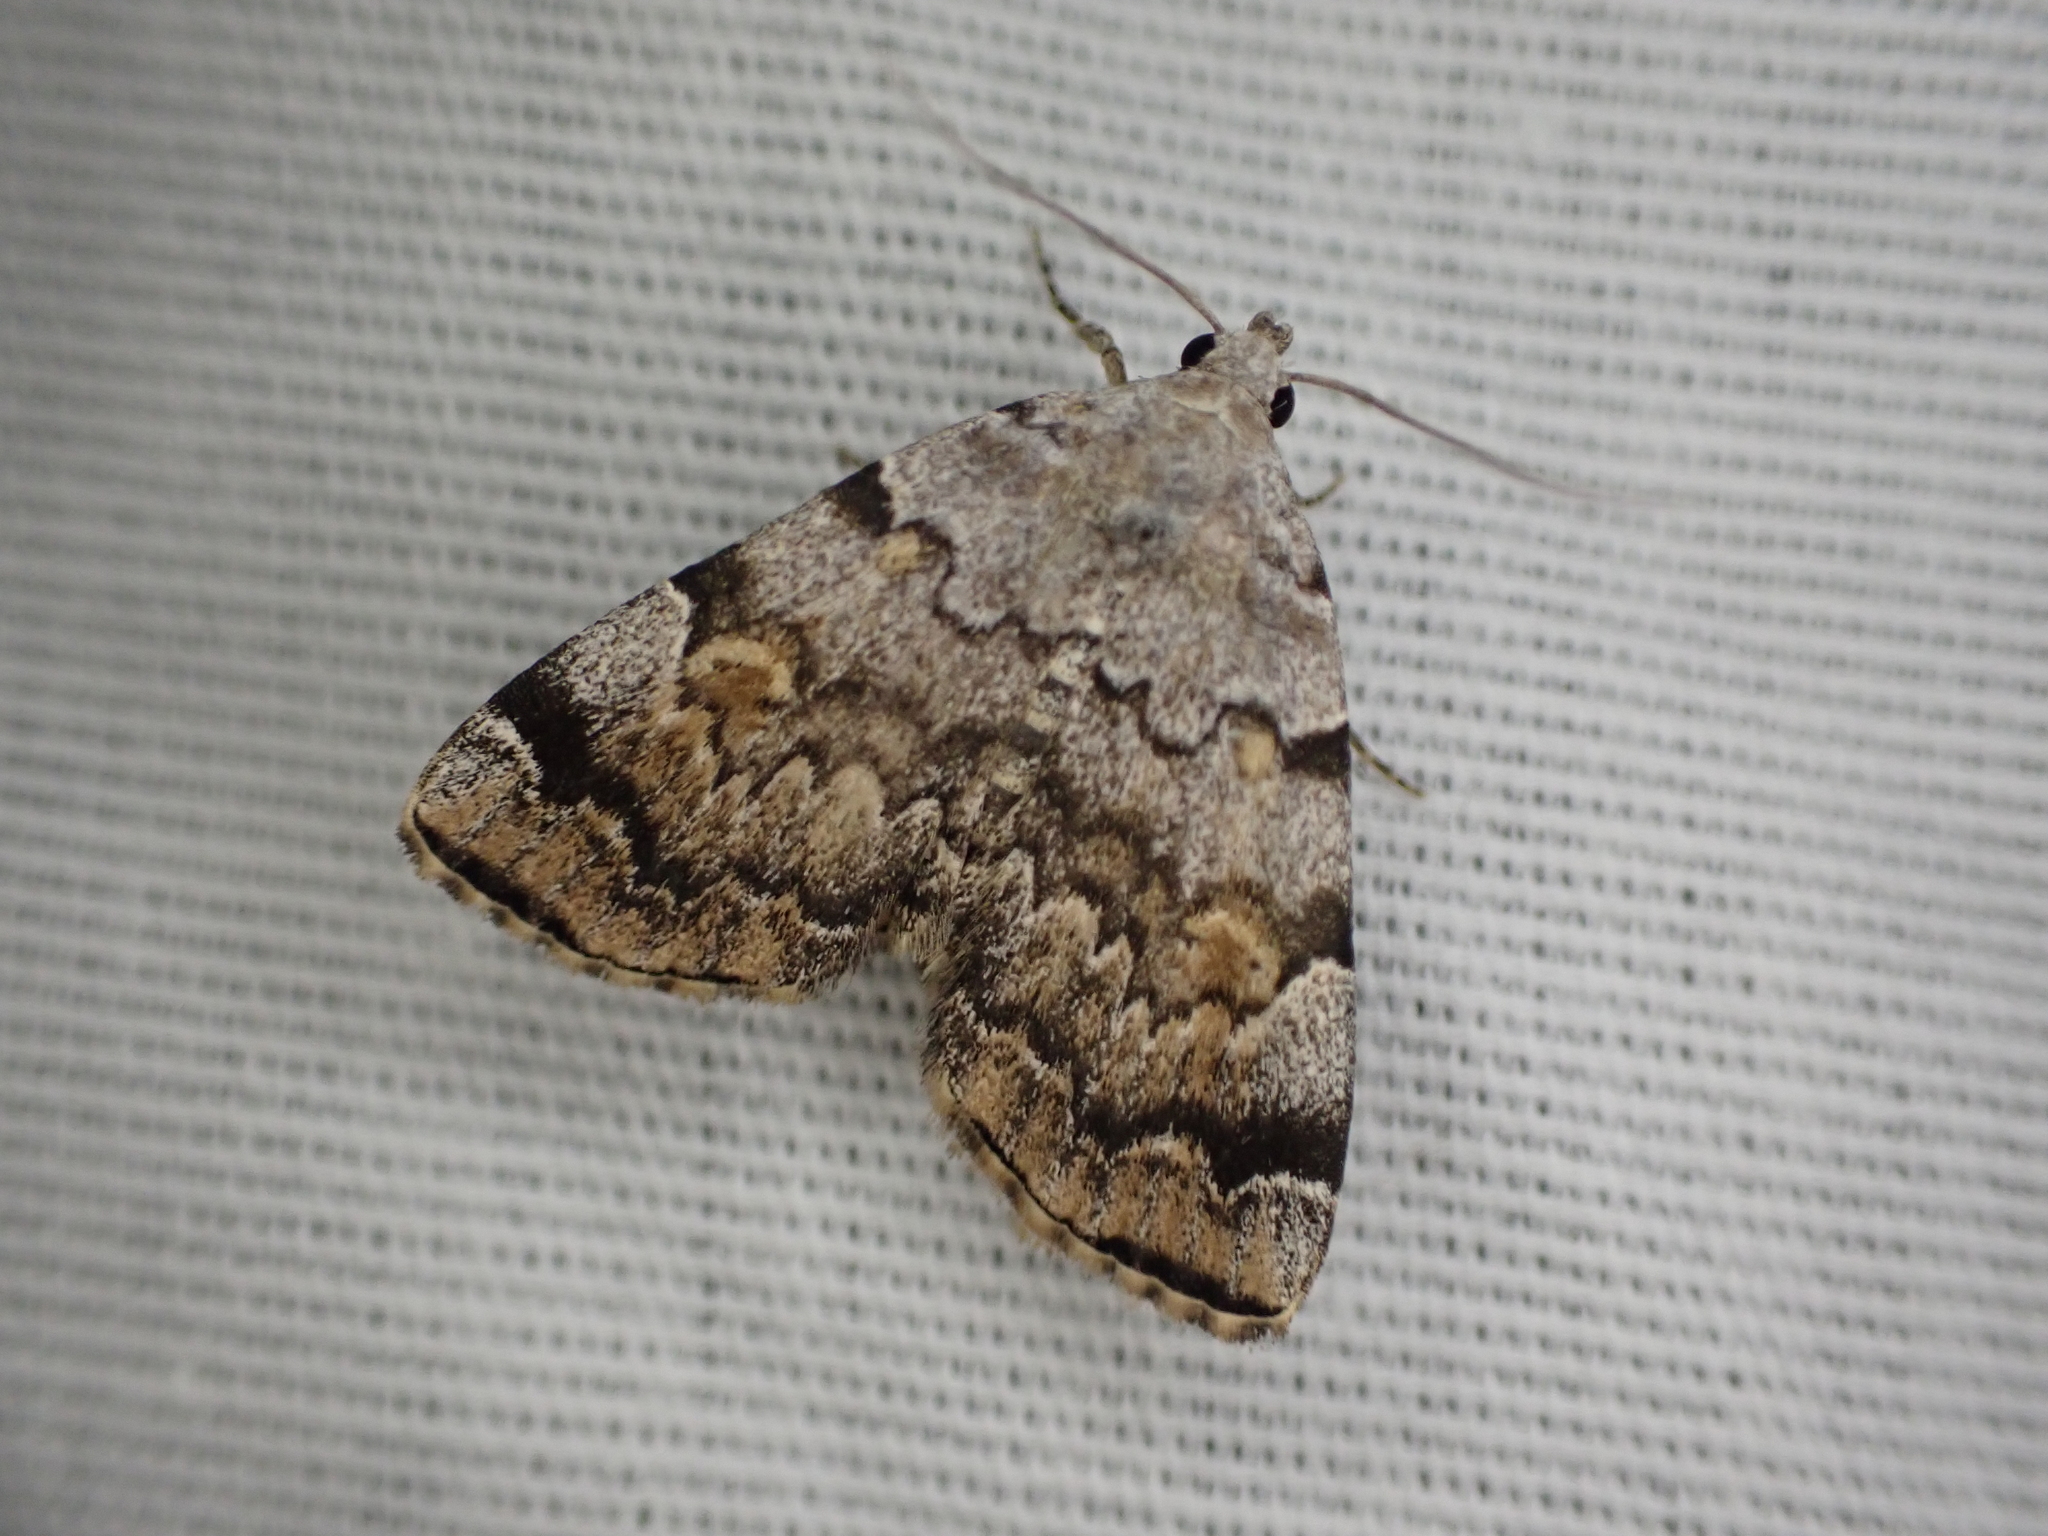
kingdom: Animalia
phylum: Arthropoda
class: Insecta
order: Lepidoptera
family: Erebidae
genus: Idia
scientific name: Idia americalis
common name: American idia moth
